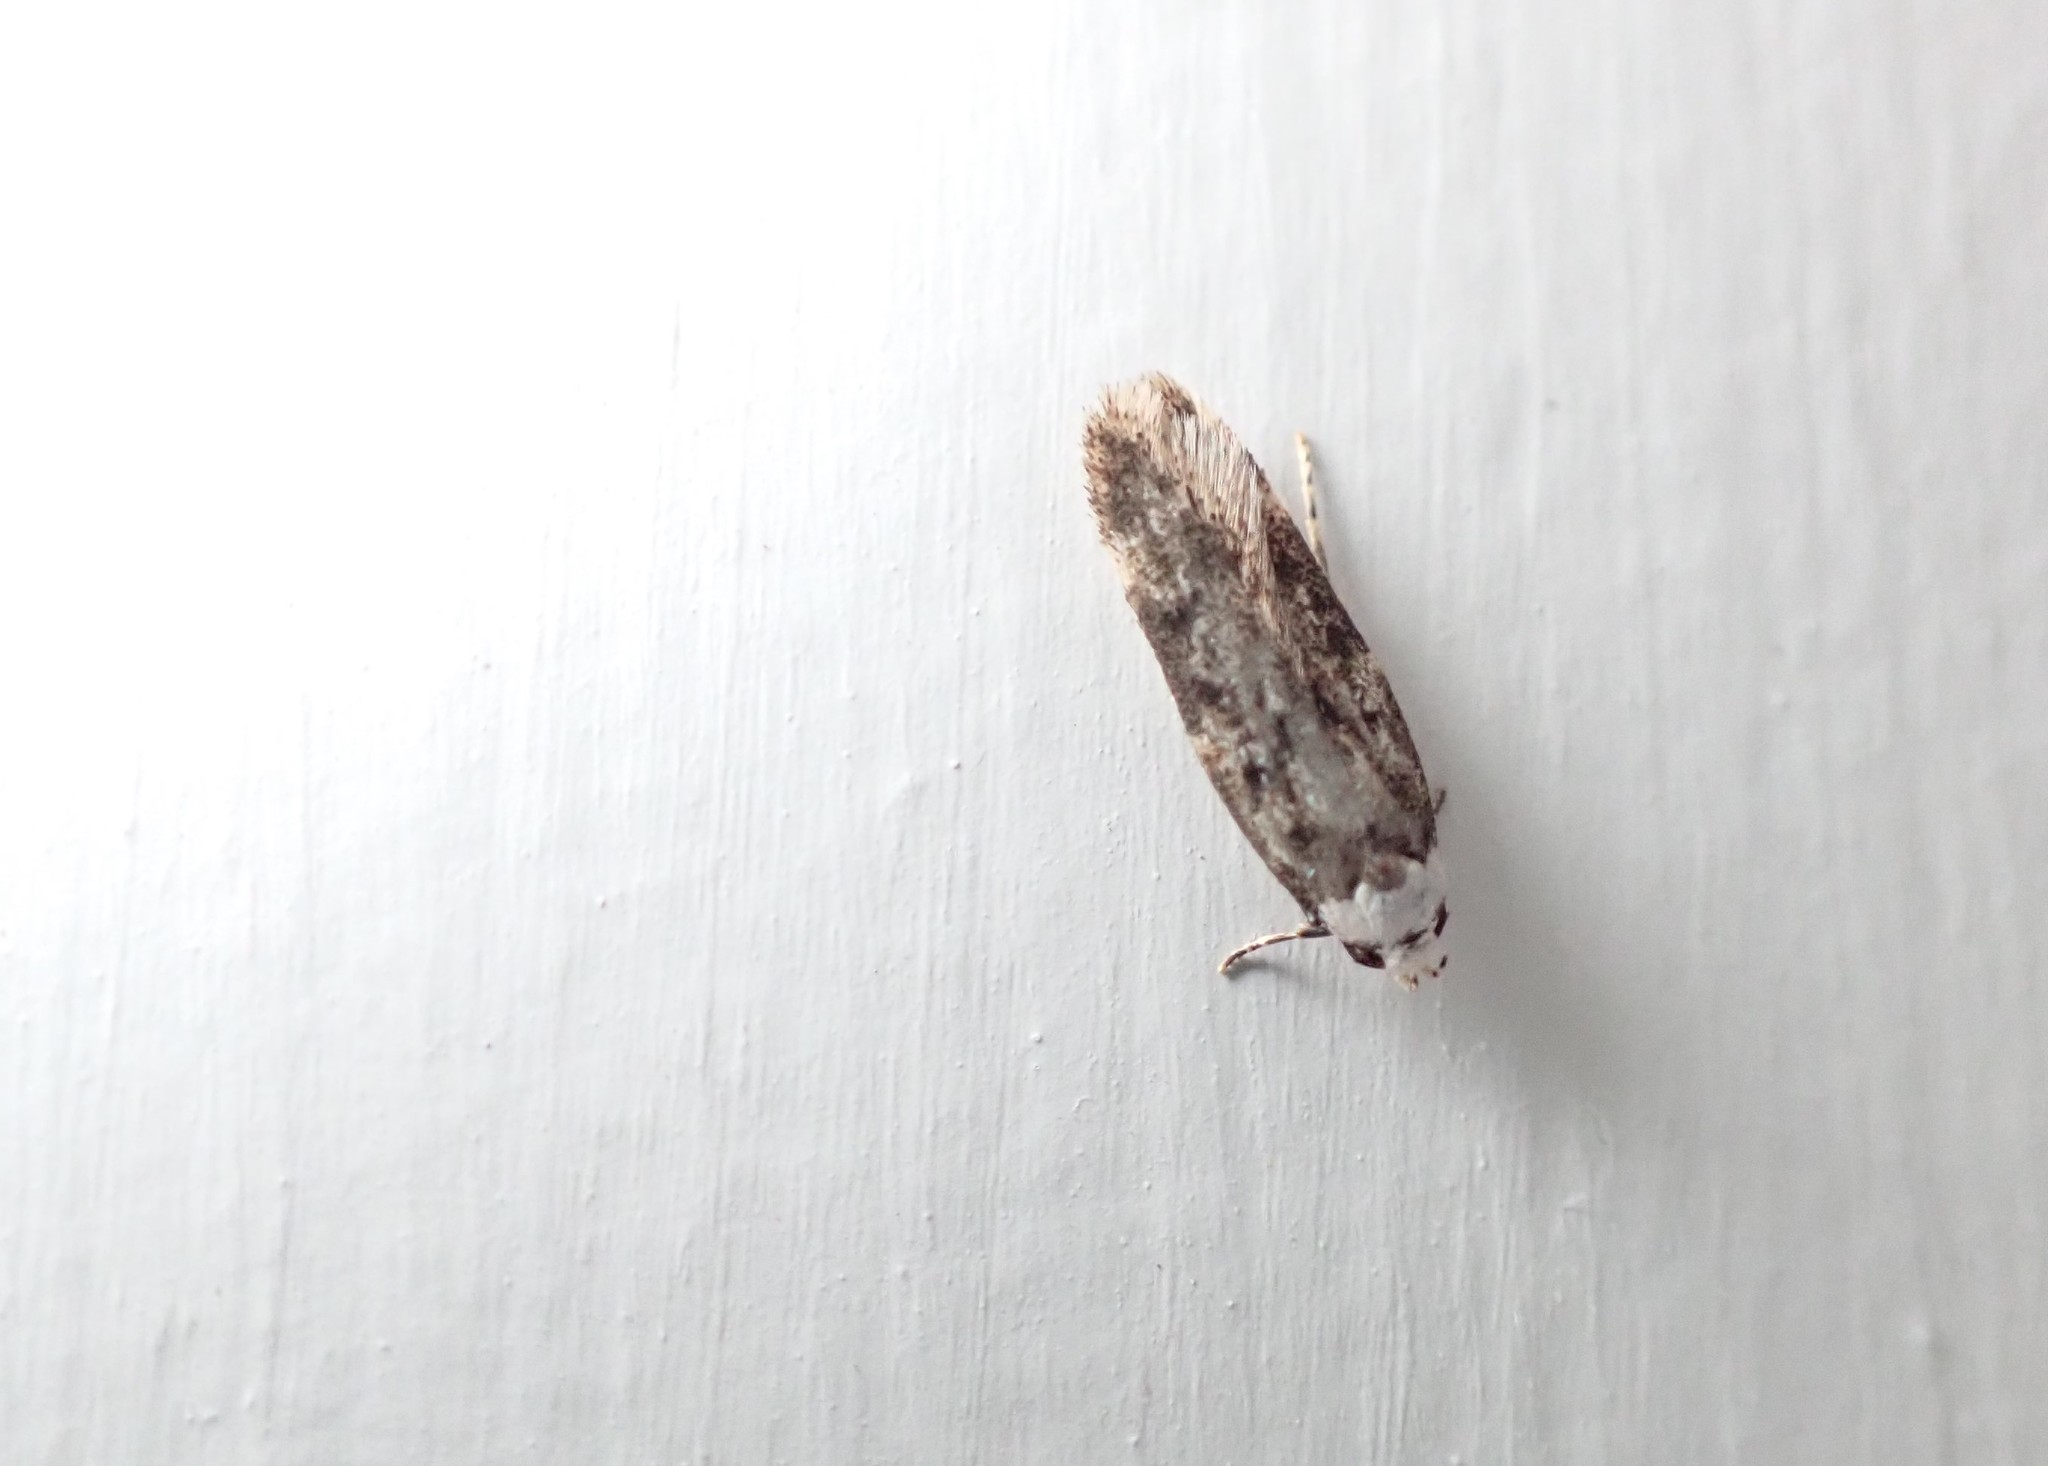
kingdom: Animalia
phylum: Arthropoda
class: Insecta
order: Lepidoptera
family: Oecophoridae
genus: Endrosis
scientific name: Endrosis sarcitrella
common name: White-shouldered house moth
